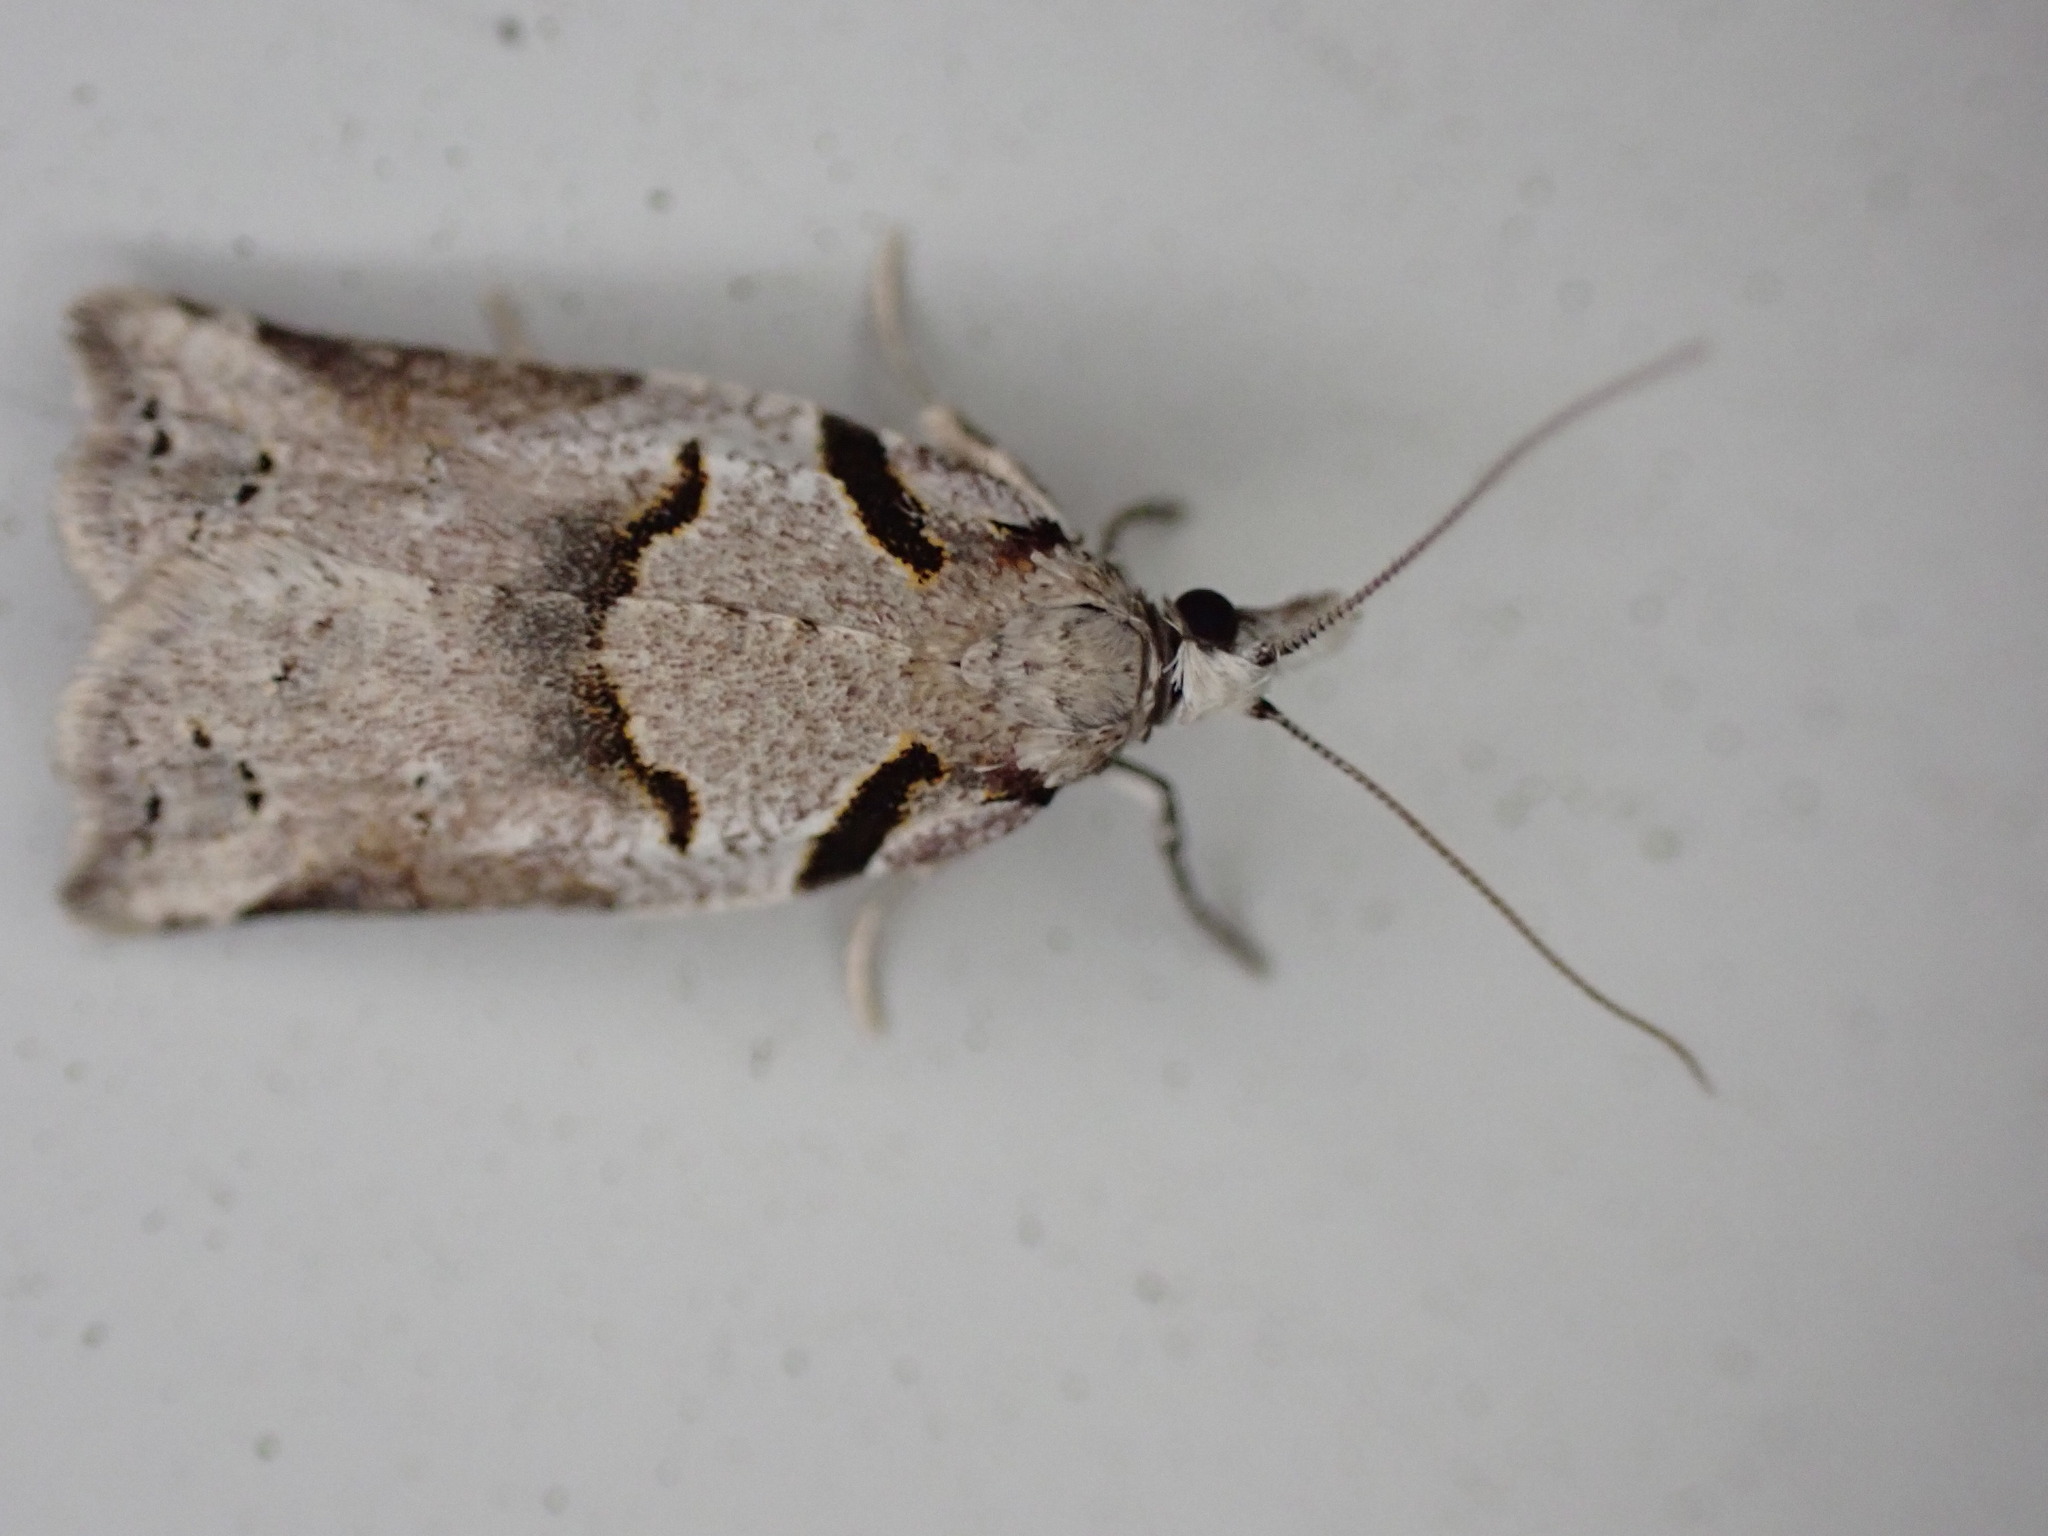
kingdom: Animalia
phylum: Arthropoda
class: Insecta
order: Lepidoptera
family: Tortricidae
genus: Harmologa
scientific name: Harmologa amplexana
